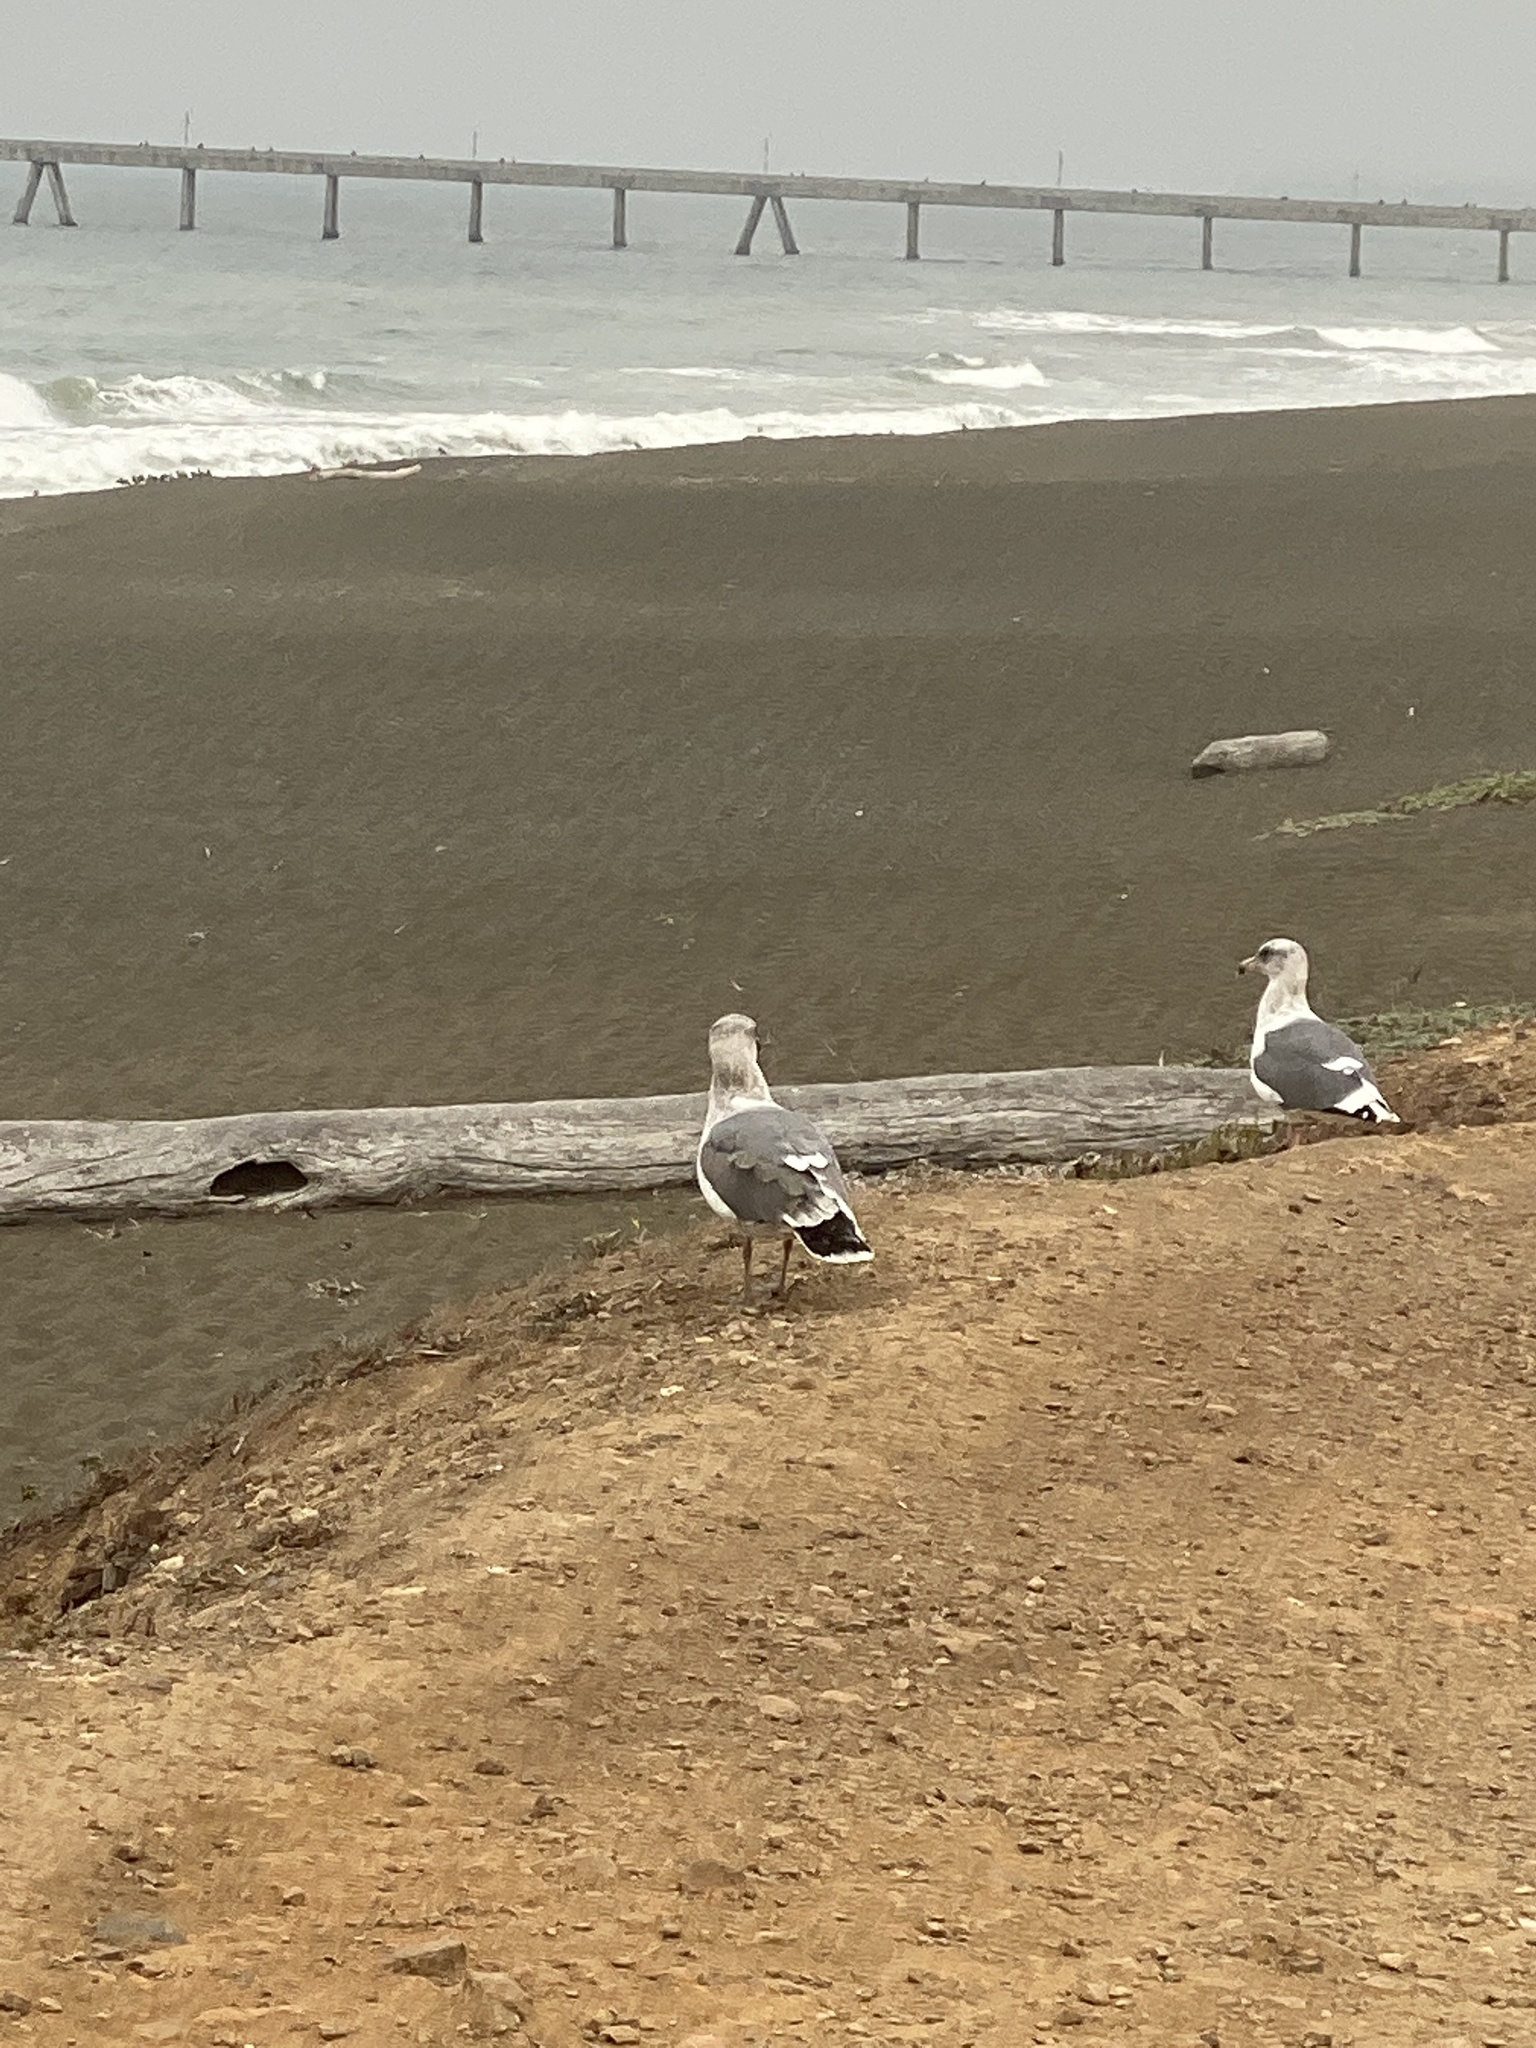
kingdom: Animalia
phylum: Chordata
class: Aves
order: Charadriiformes
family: Laridae
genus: Larus
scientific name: Larus occidentalis
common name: Western gull
